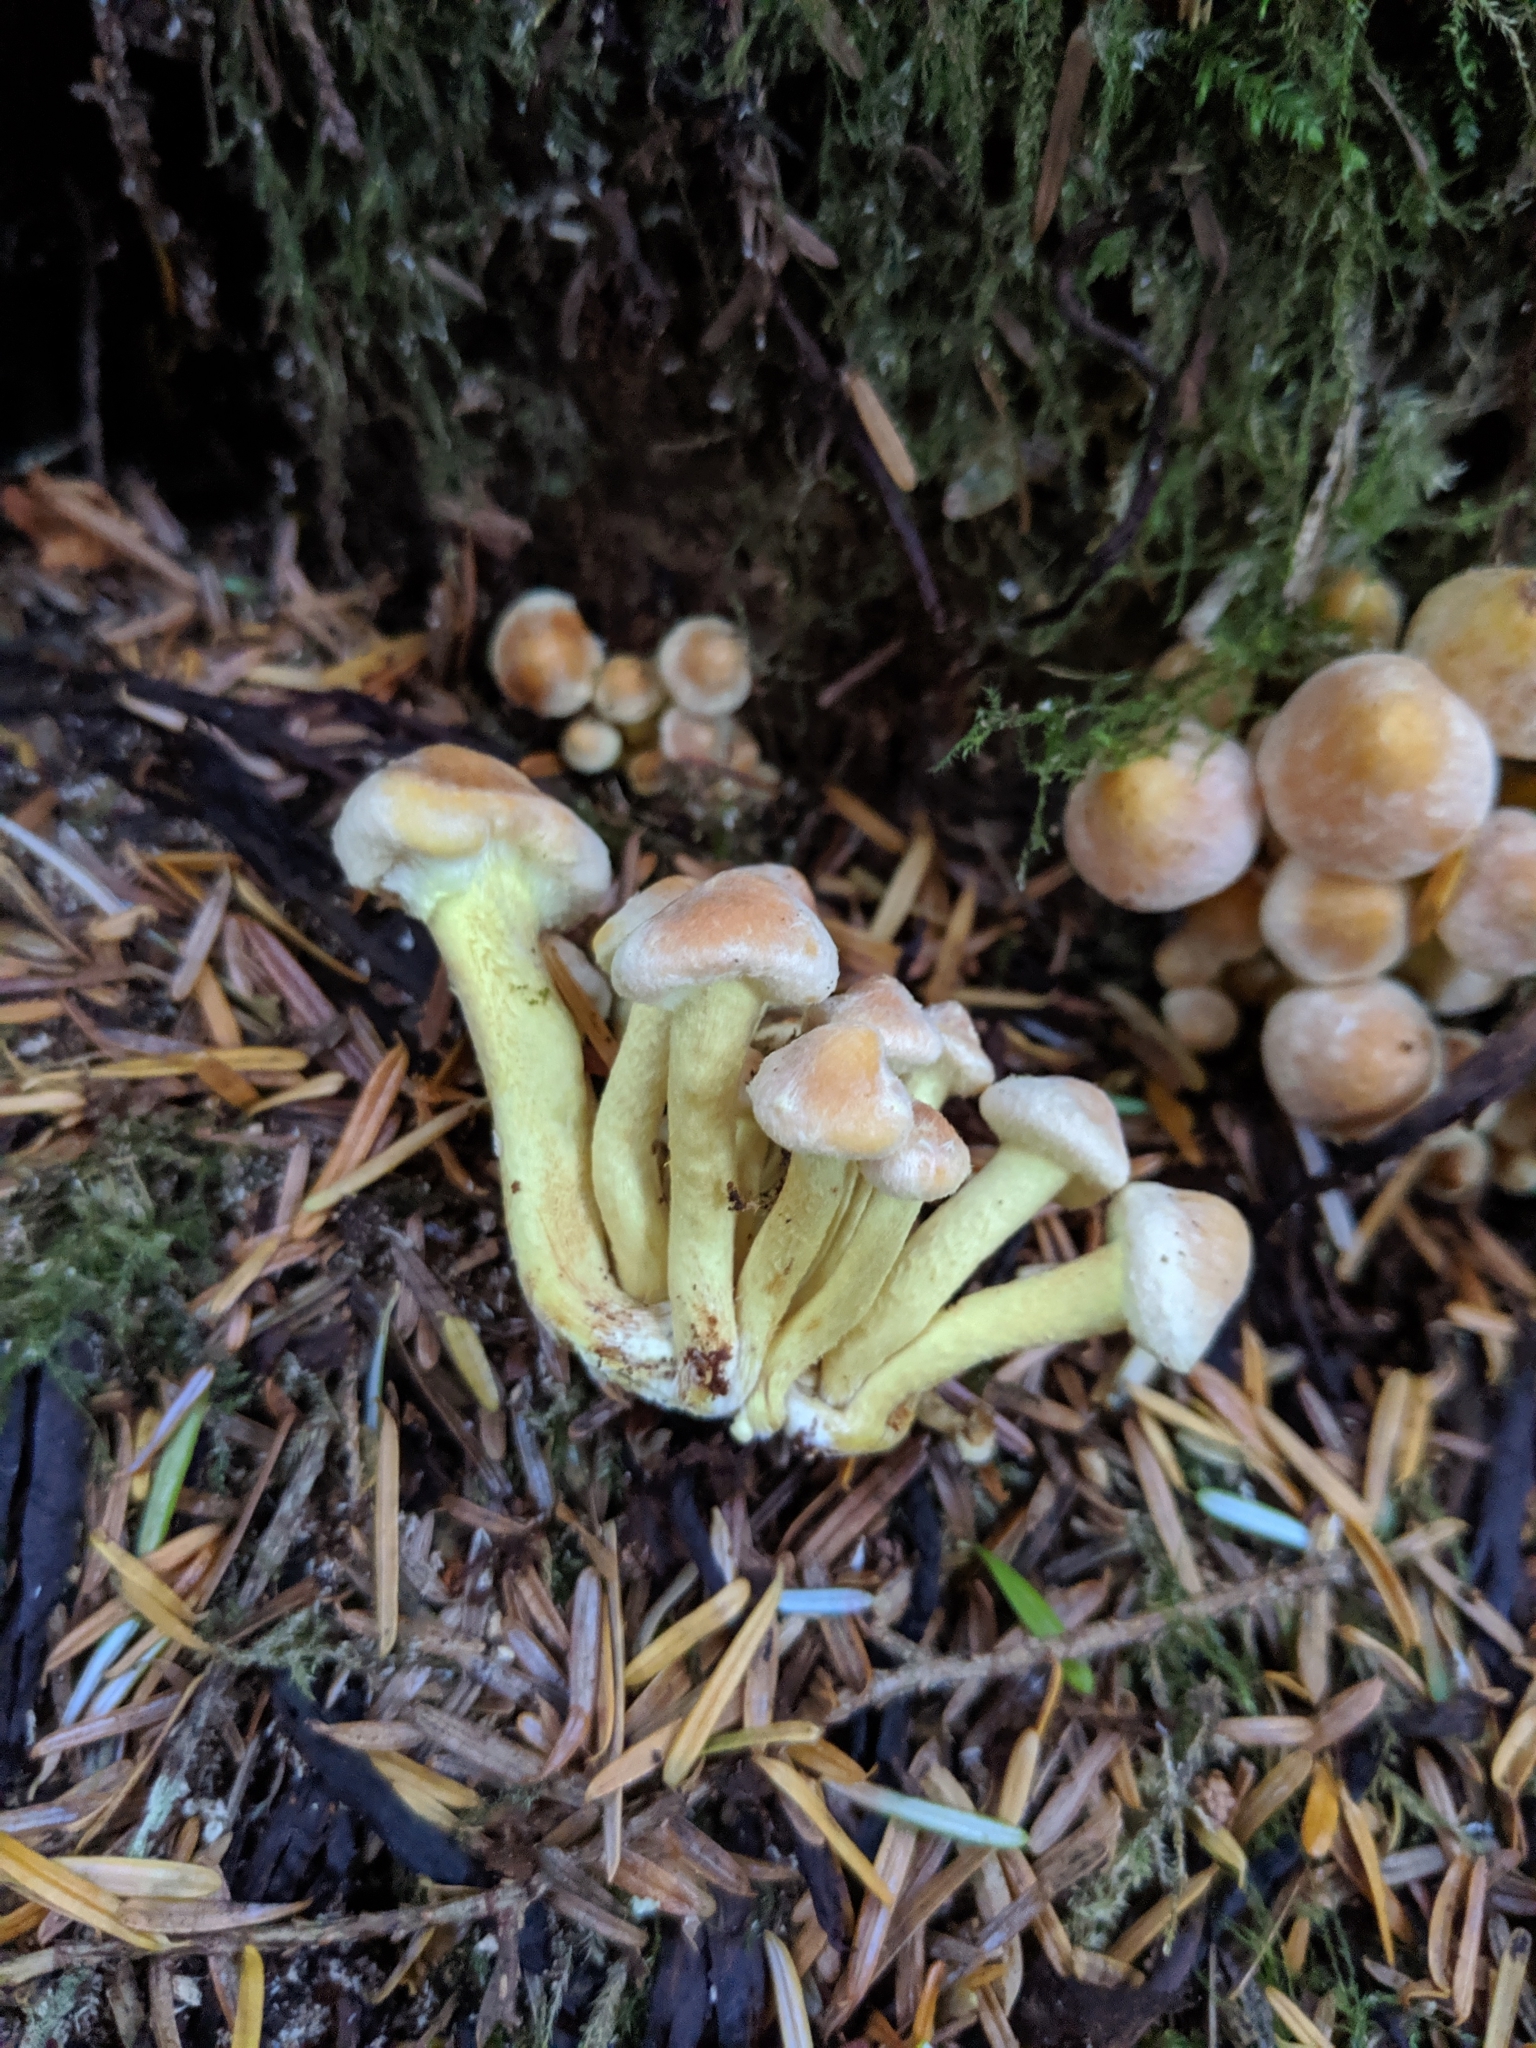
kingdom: Fungi
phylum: Basidiomycota
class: Agaricomycetes
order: Agaricales
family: Strophariaceae
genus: Hypholoma
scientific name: Hypholoma fasciculare
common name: Sulphur tuft
